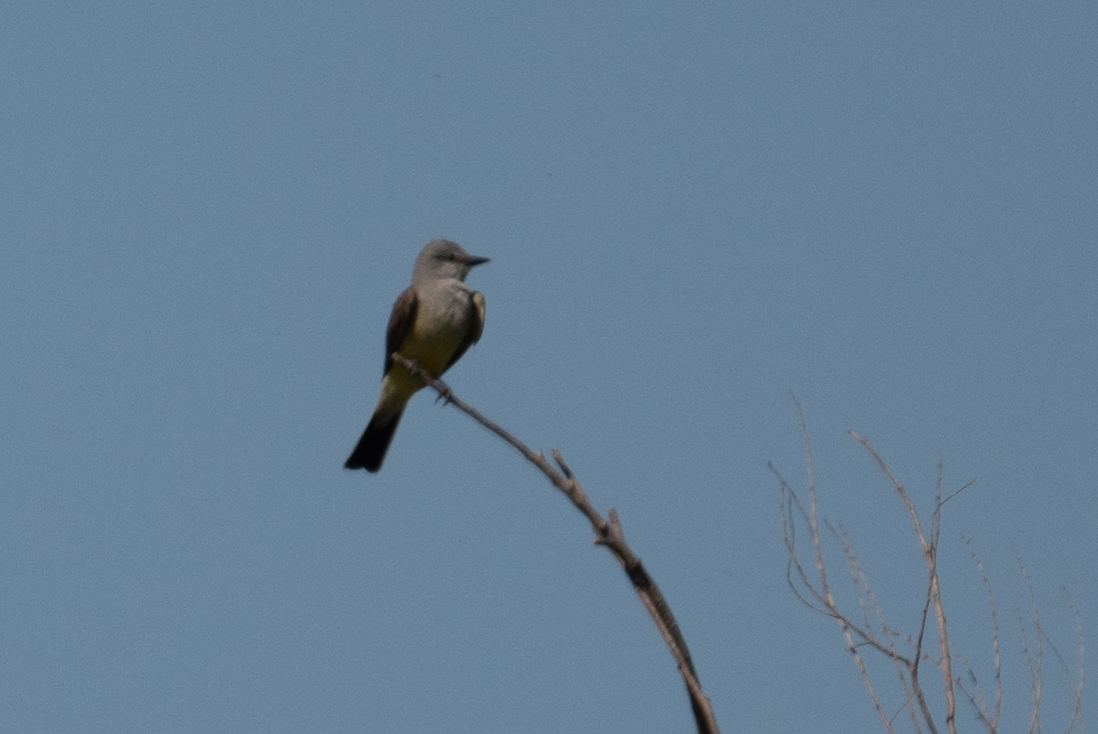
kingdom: Animalia
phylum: Chordata
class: Aves
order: Passeriformes
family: Tyrannidae
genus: Tyrannus
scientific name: Tyrannus verticalis
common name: Western kingbird
